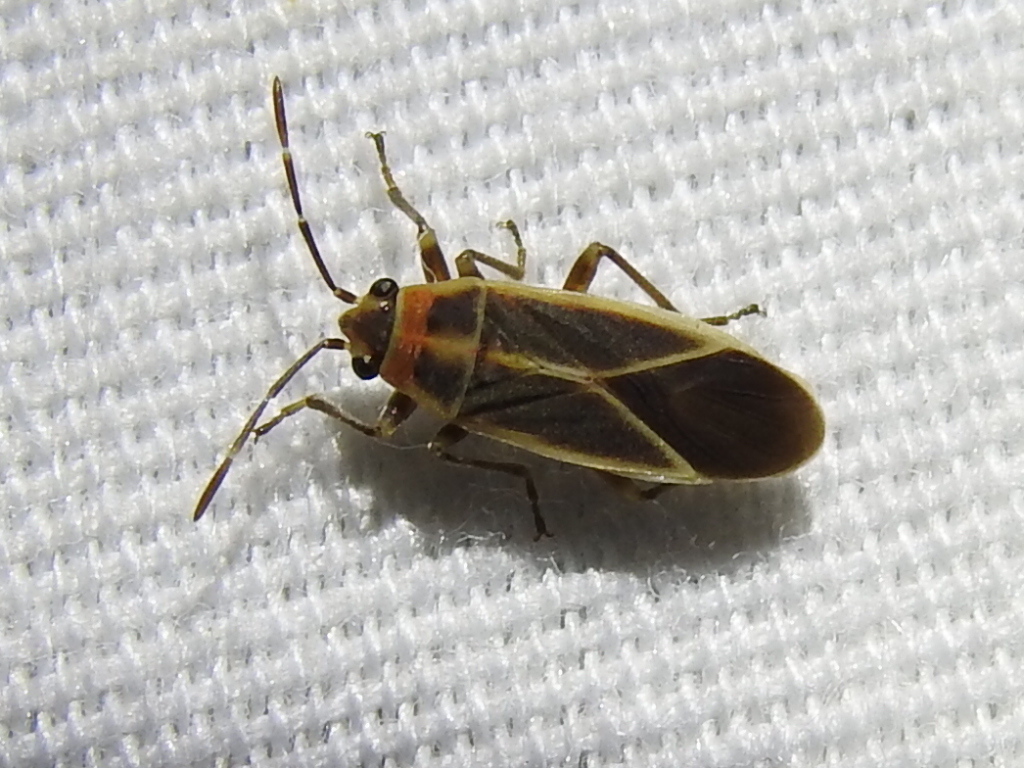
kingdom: Animalia
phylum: Arthropoda
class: Insecta
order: Hemiptera
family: Lygaeidae
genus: Ochrimnus
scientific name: Ochrimnus mimulus
